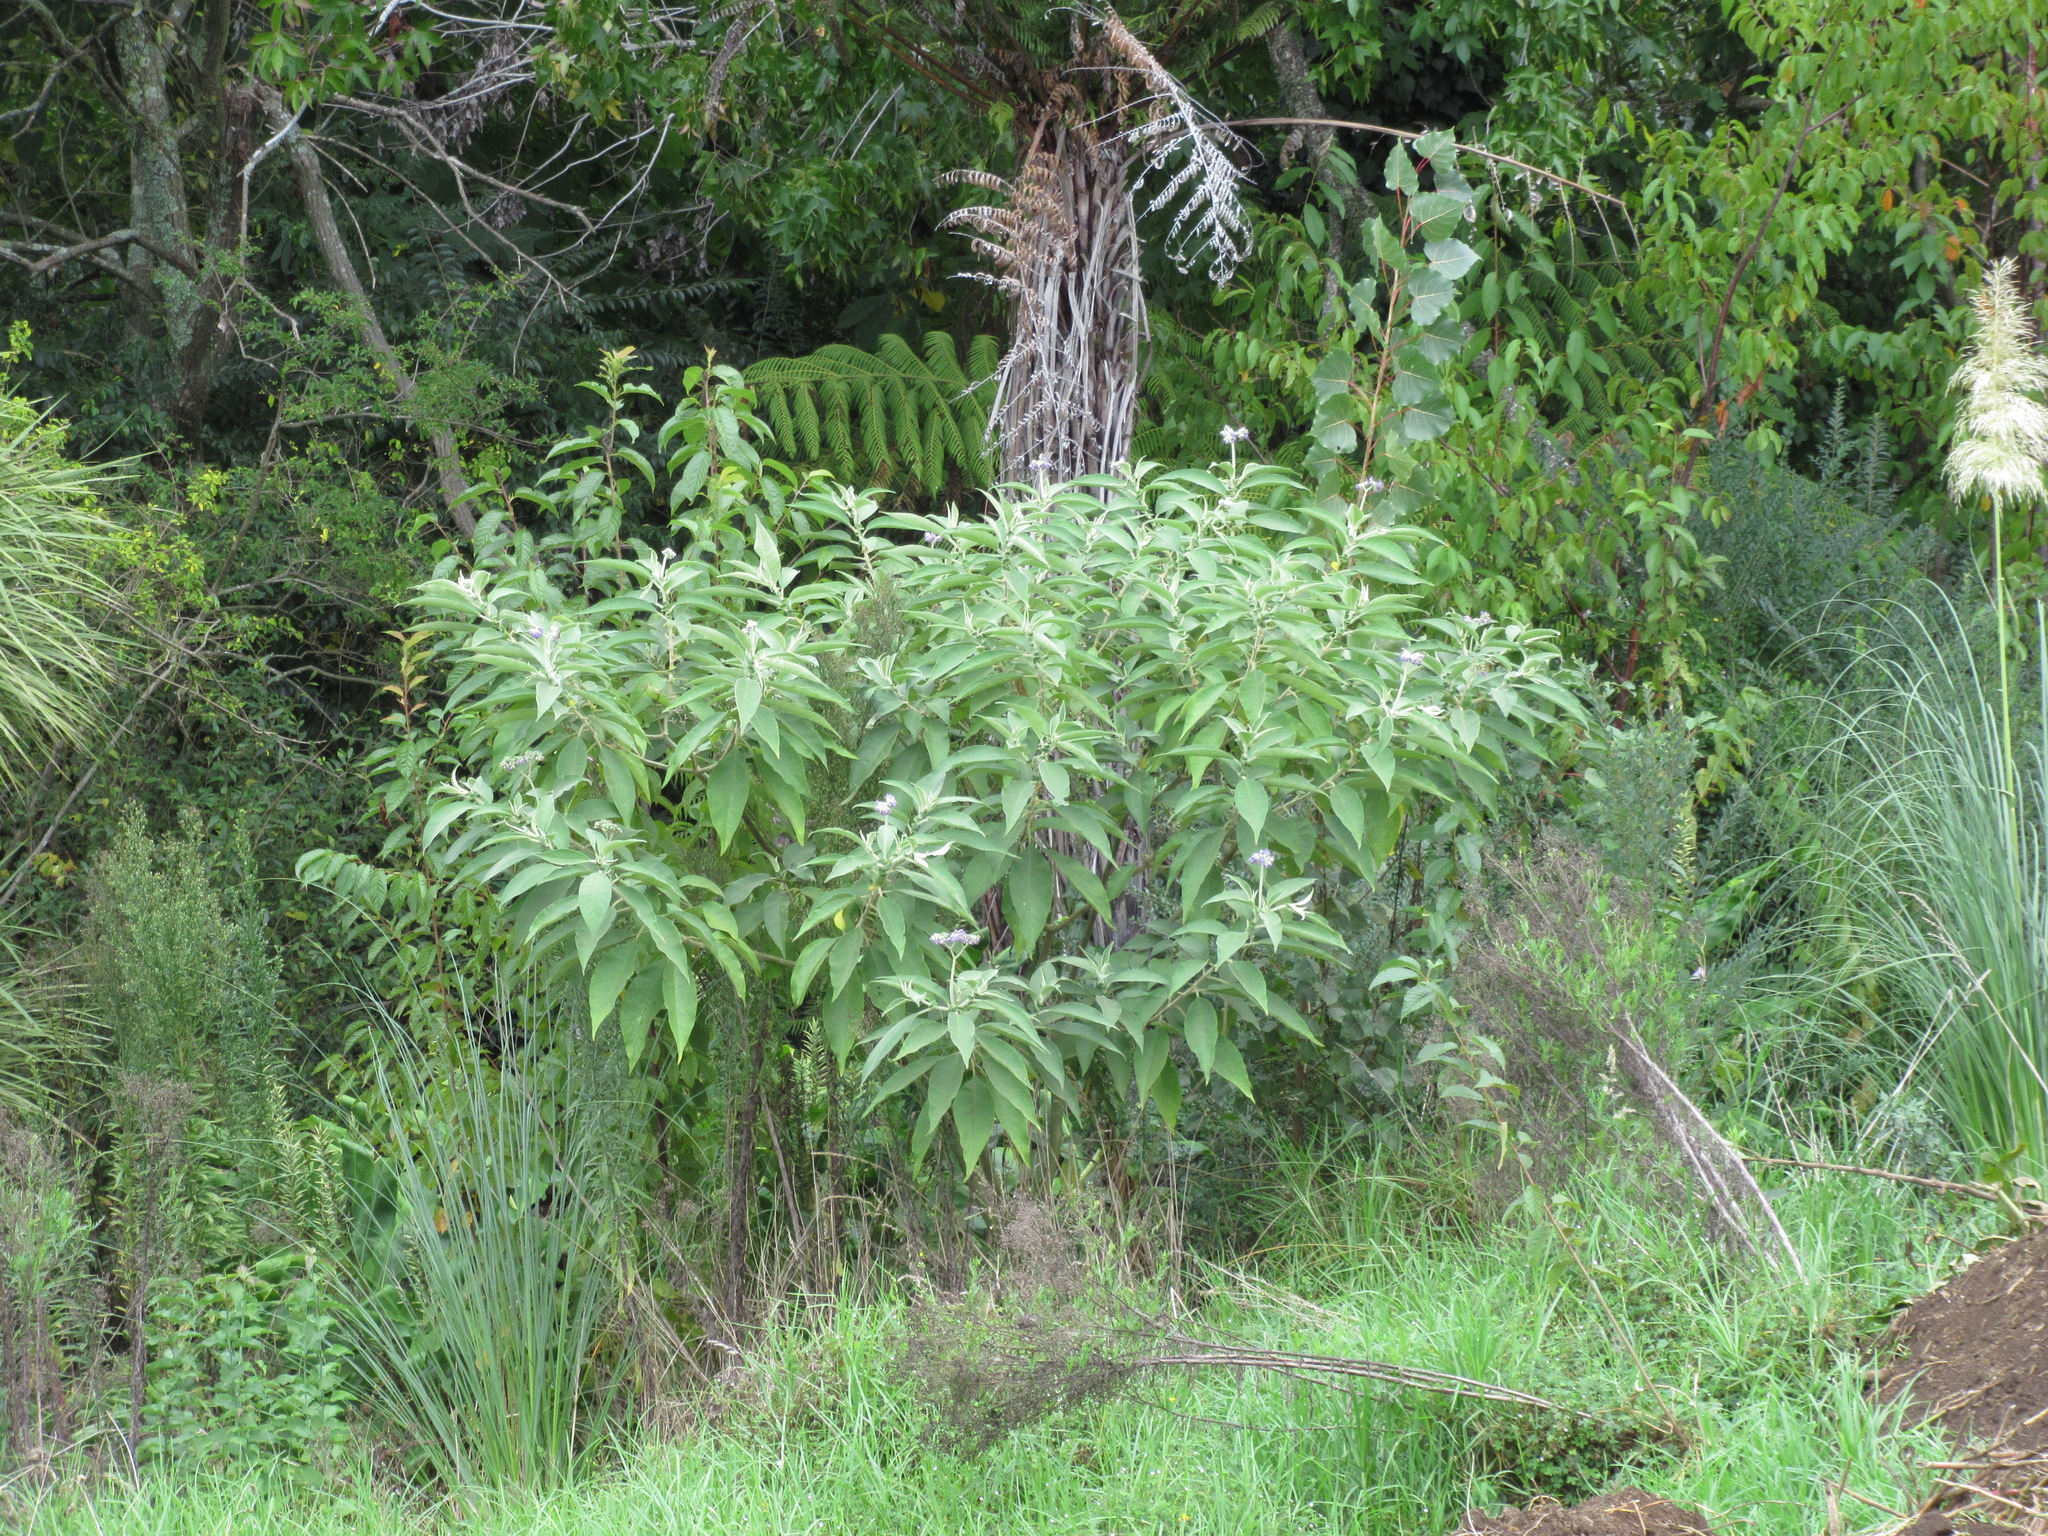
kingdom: Plantae
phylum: Tracheophyta
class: Magnoliopsida
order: Solanales
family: Solanaceae
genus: Solanum
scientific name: Solanum mauritianum
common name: Earleaf nightshade
